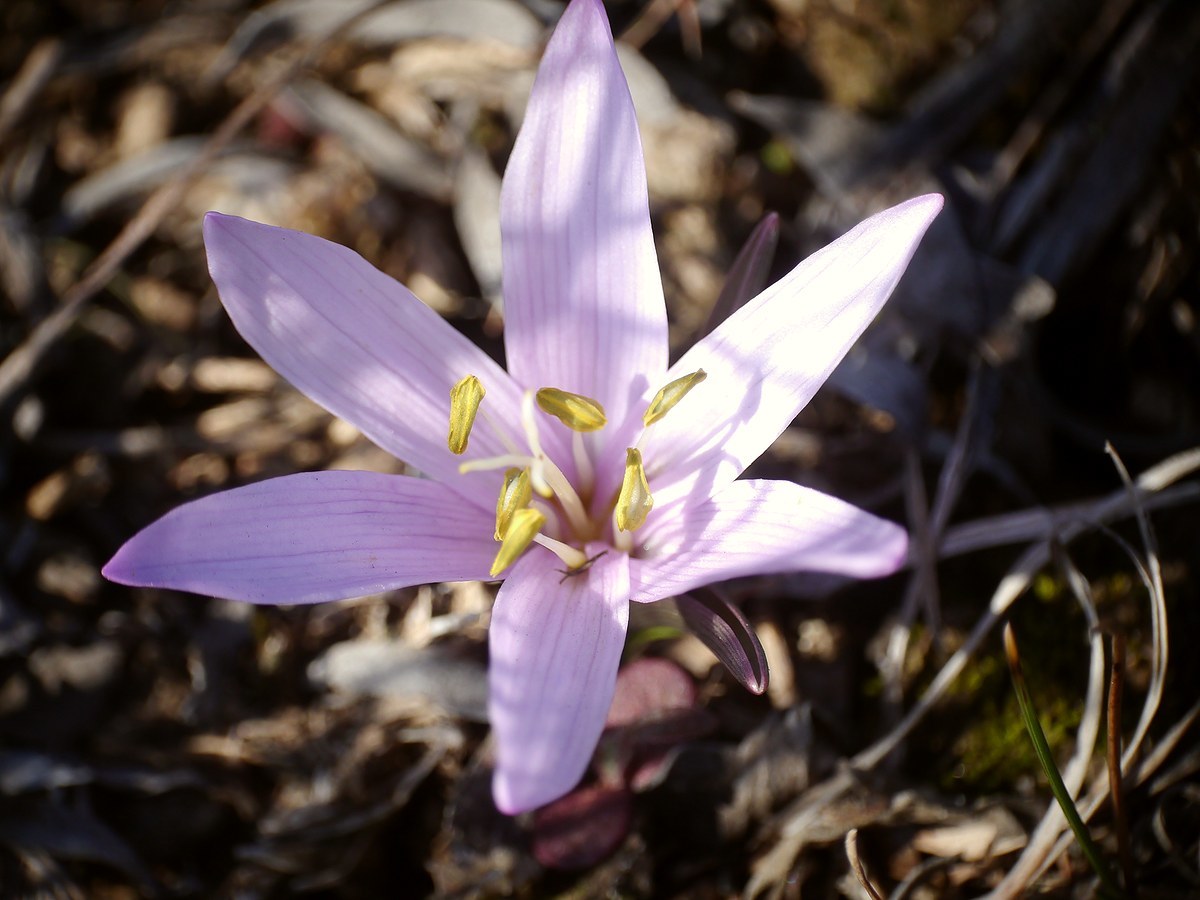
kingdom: Plantae
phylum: Tracheophyta
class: Liliopsida
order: Liliales
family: Colchicaceae
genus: Colchicum
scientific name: Colchicum bulbocodium
